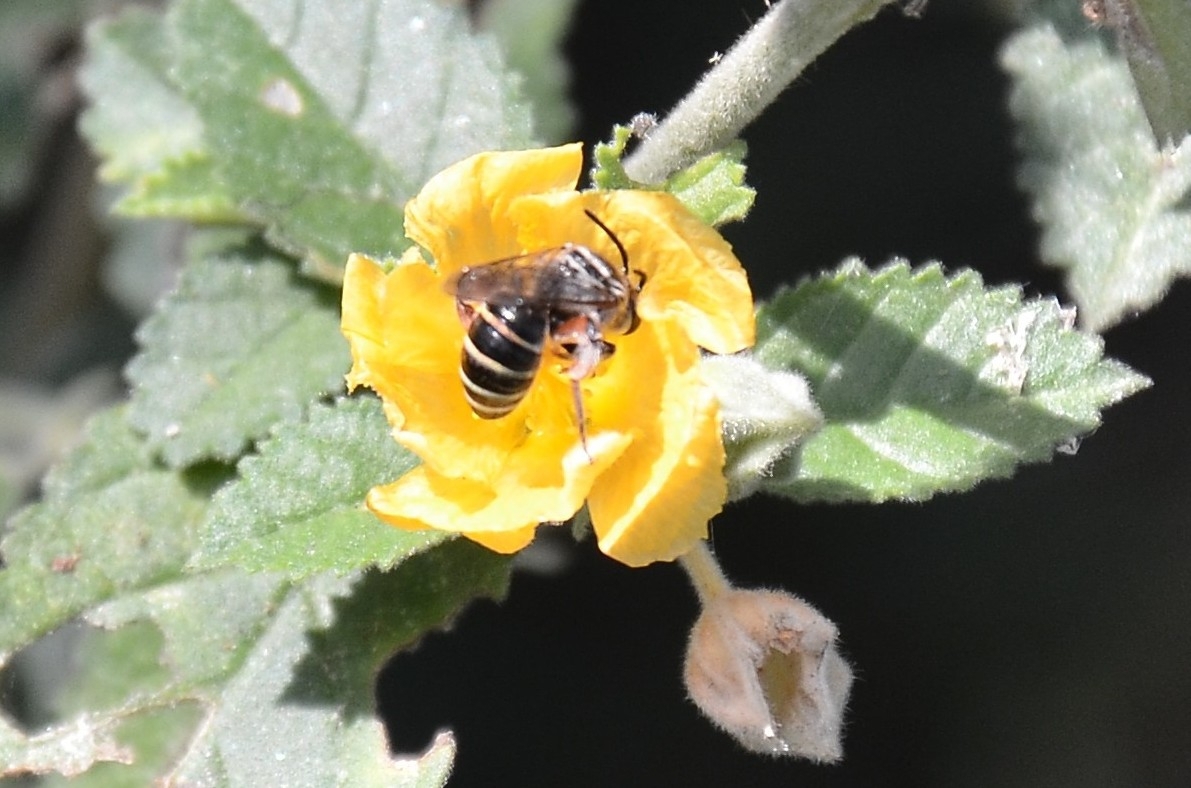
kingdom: Animalia
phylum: Arthropoda
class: Insecta
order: Hymenoptera
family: Halictidae
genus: Nomia
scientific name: Nomia westwoodi
